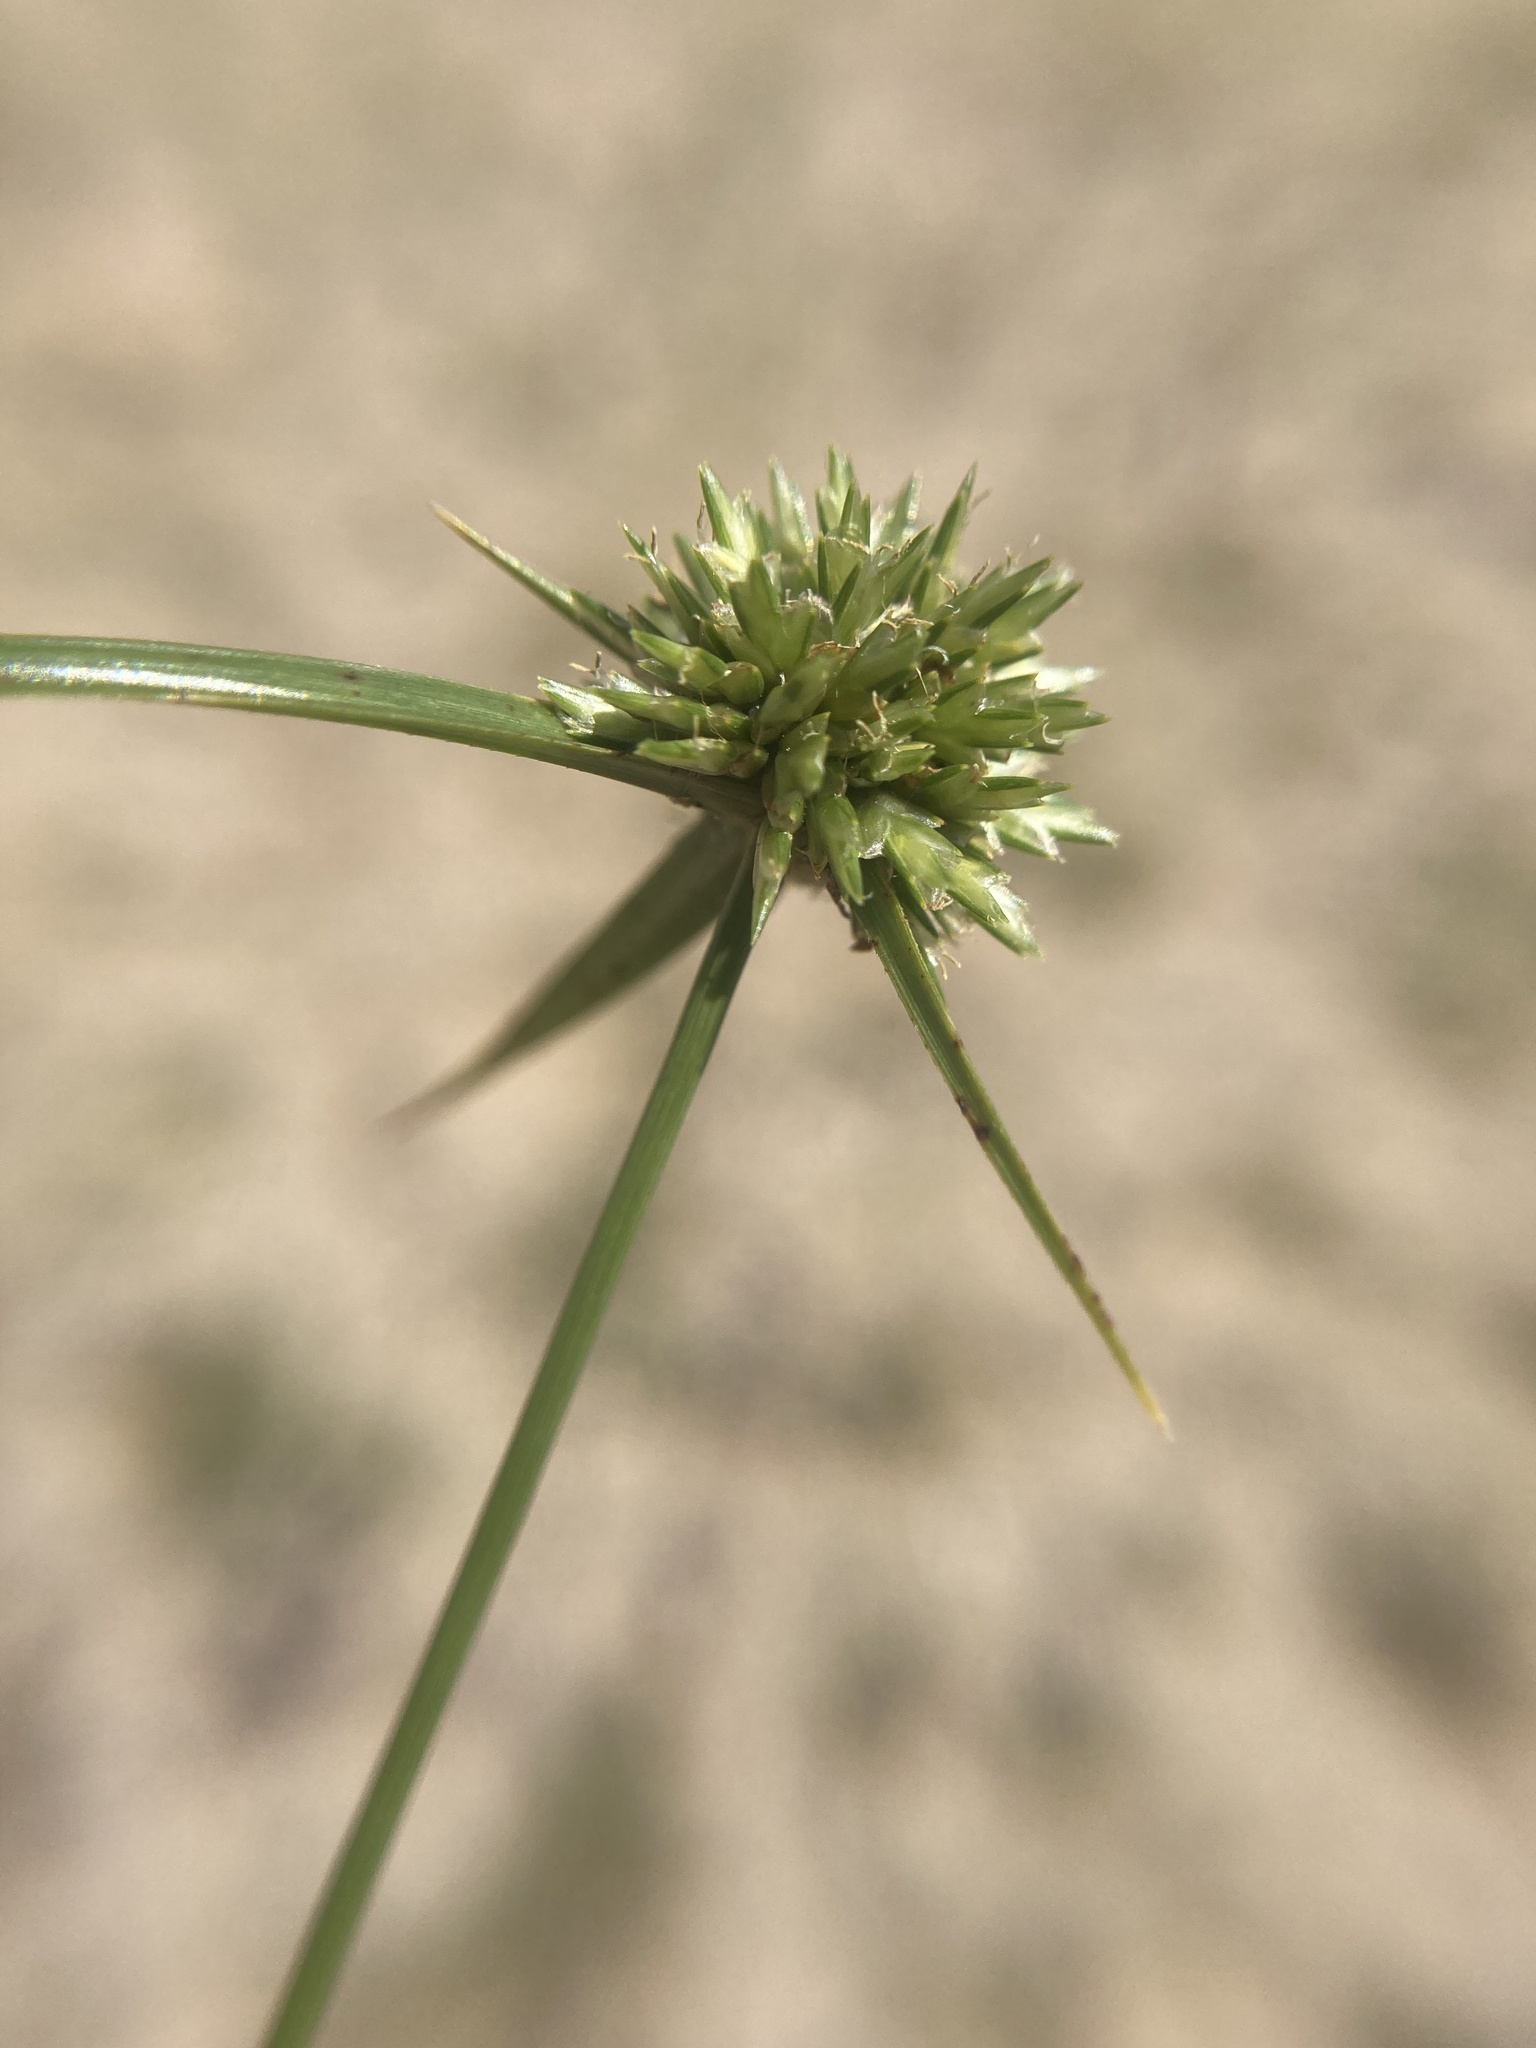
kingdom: Plantae
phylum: Tracheophyta
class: Liliopsida
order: Poales
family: Cyperaceae
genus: Cyperus
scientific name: Cyperus lupulinus
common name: Great plains flatsedge
